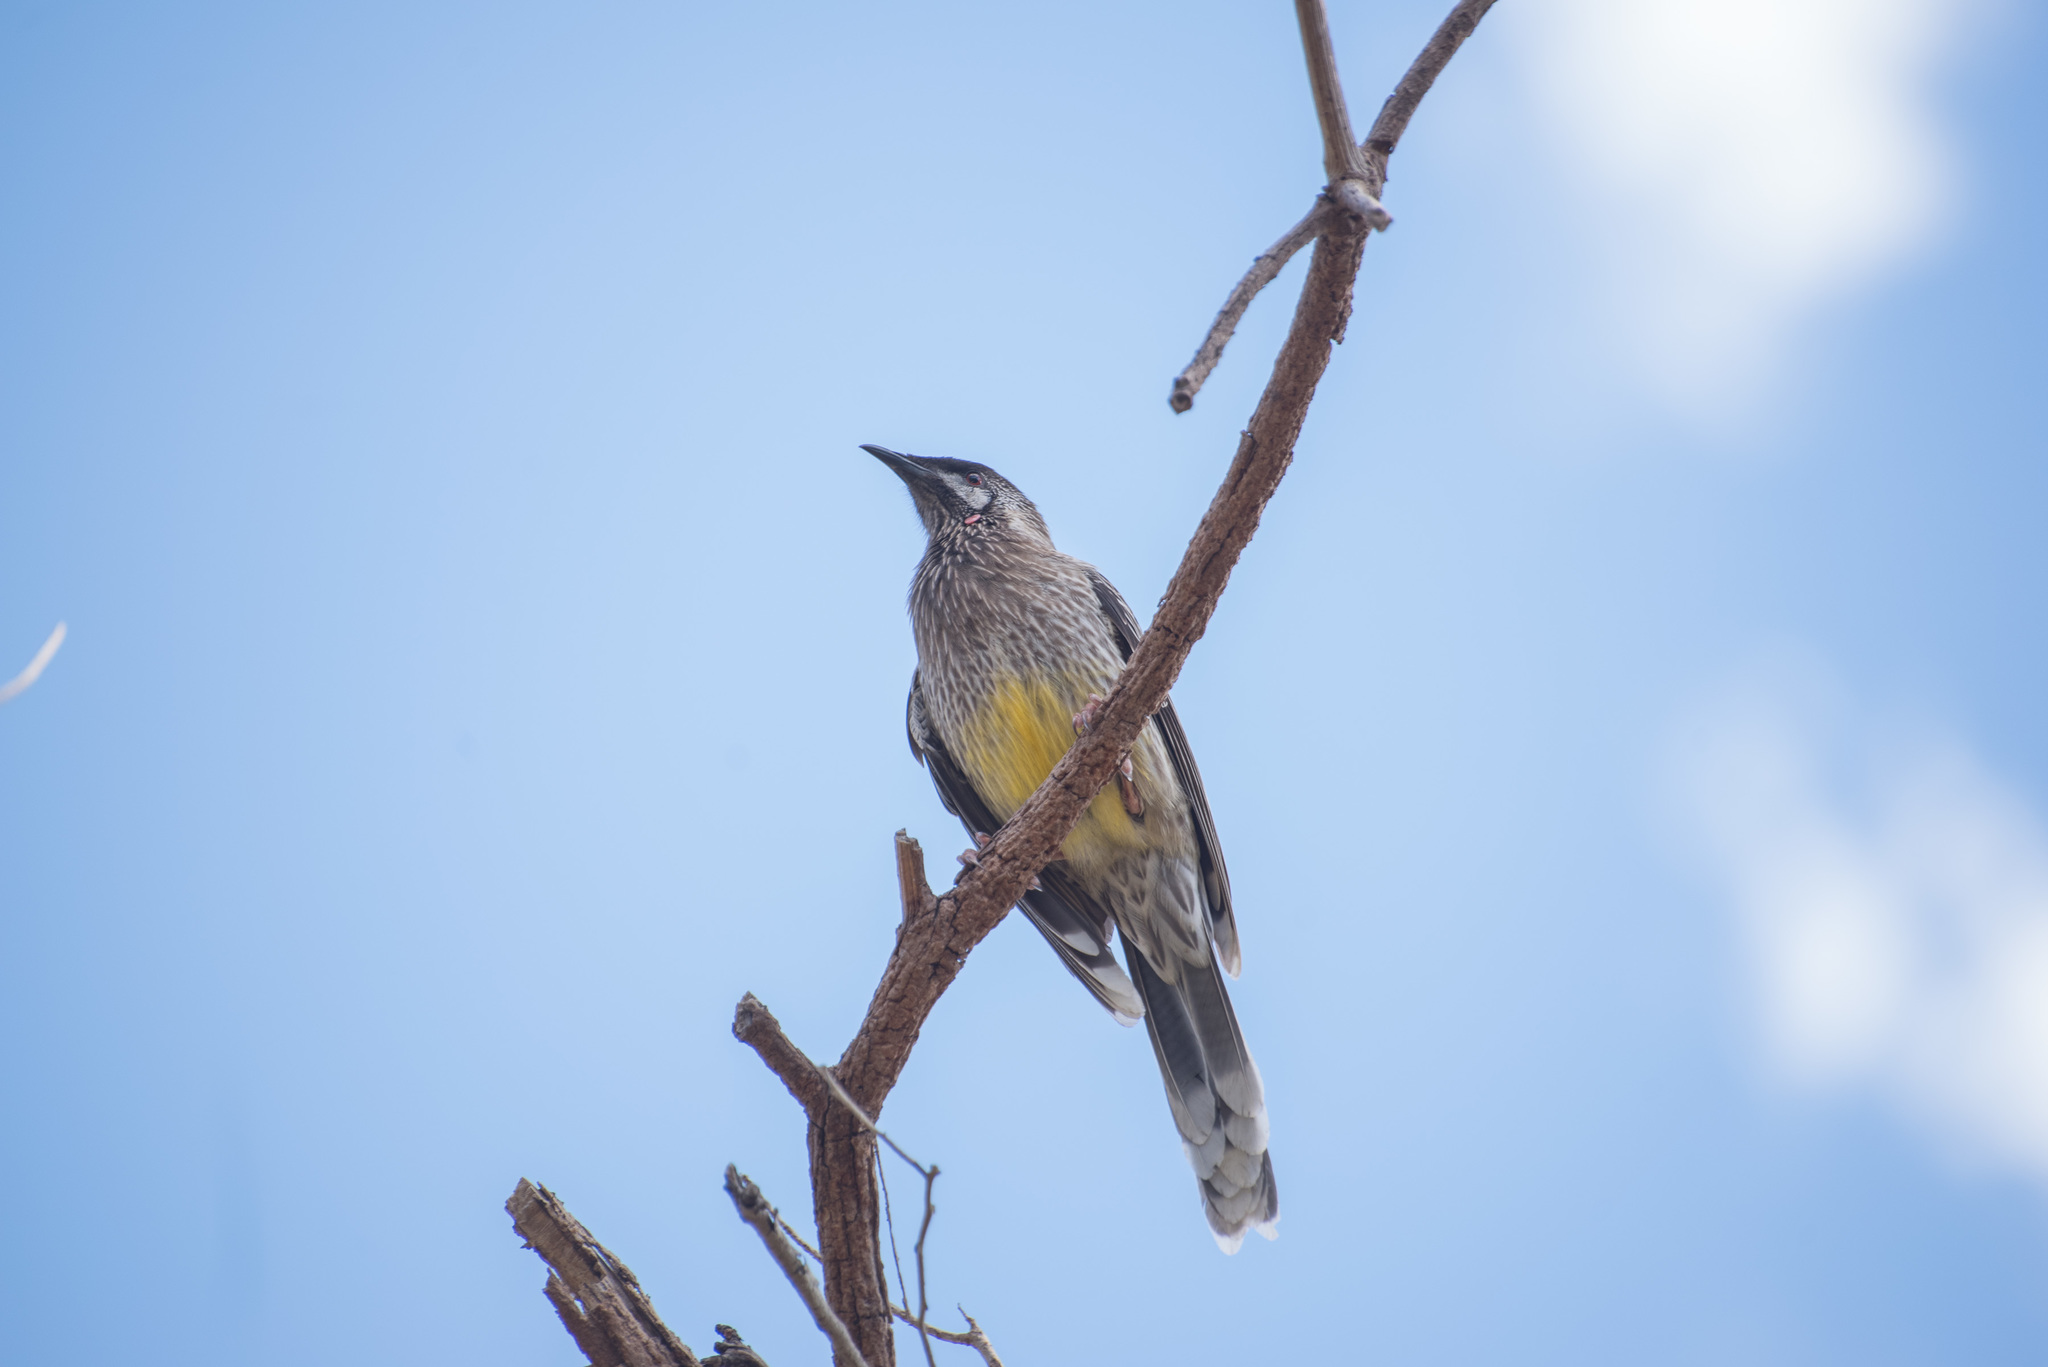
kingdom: Animalia
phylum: Chordata
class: Aves
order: Passeriformes
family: Meliphagidae
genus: Anthochaera
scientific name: Anthochaera carunculata
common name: Red wattlebird
